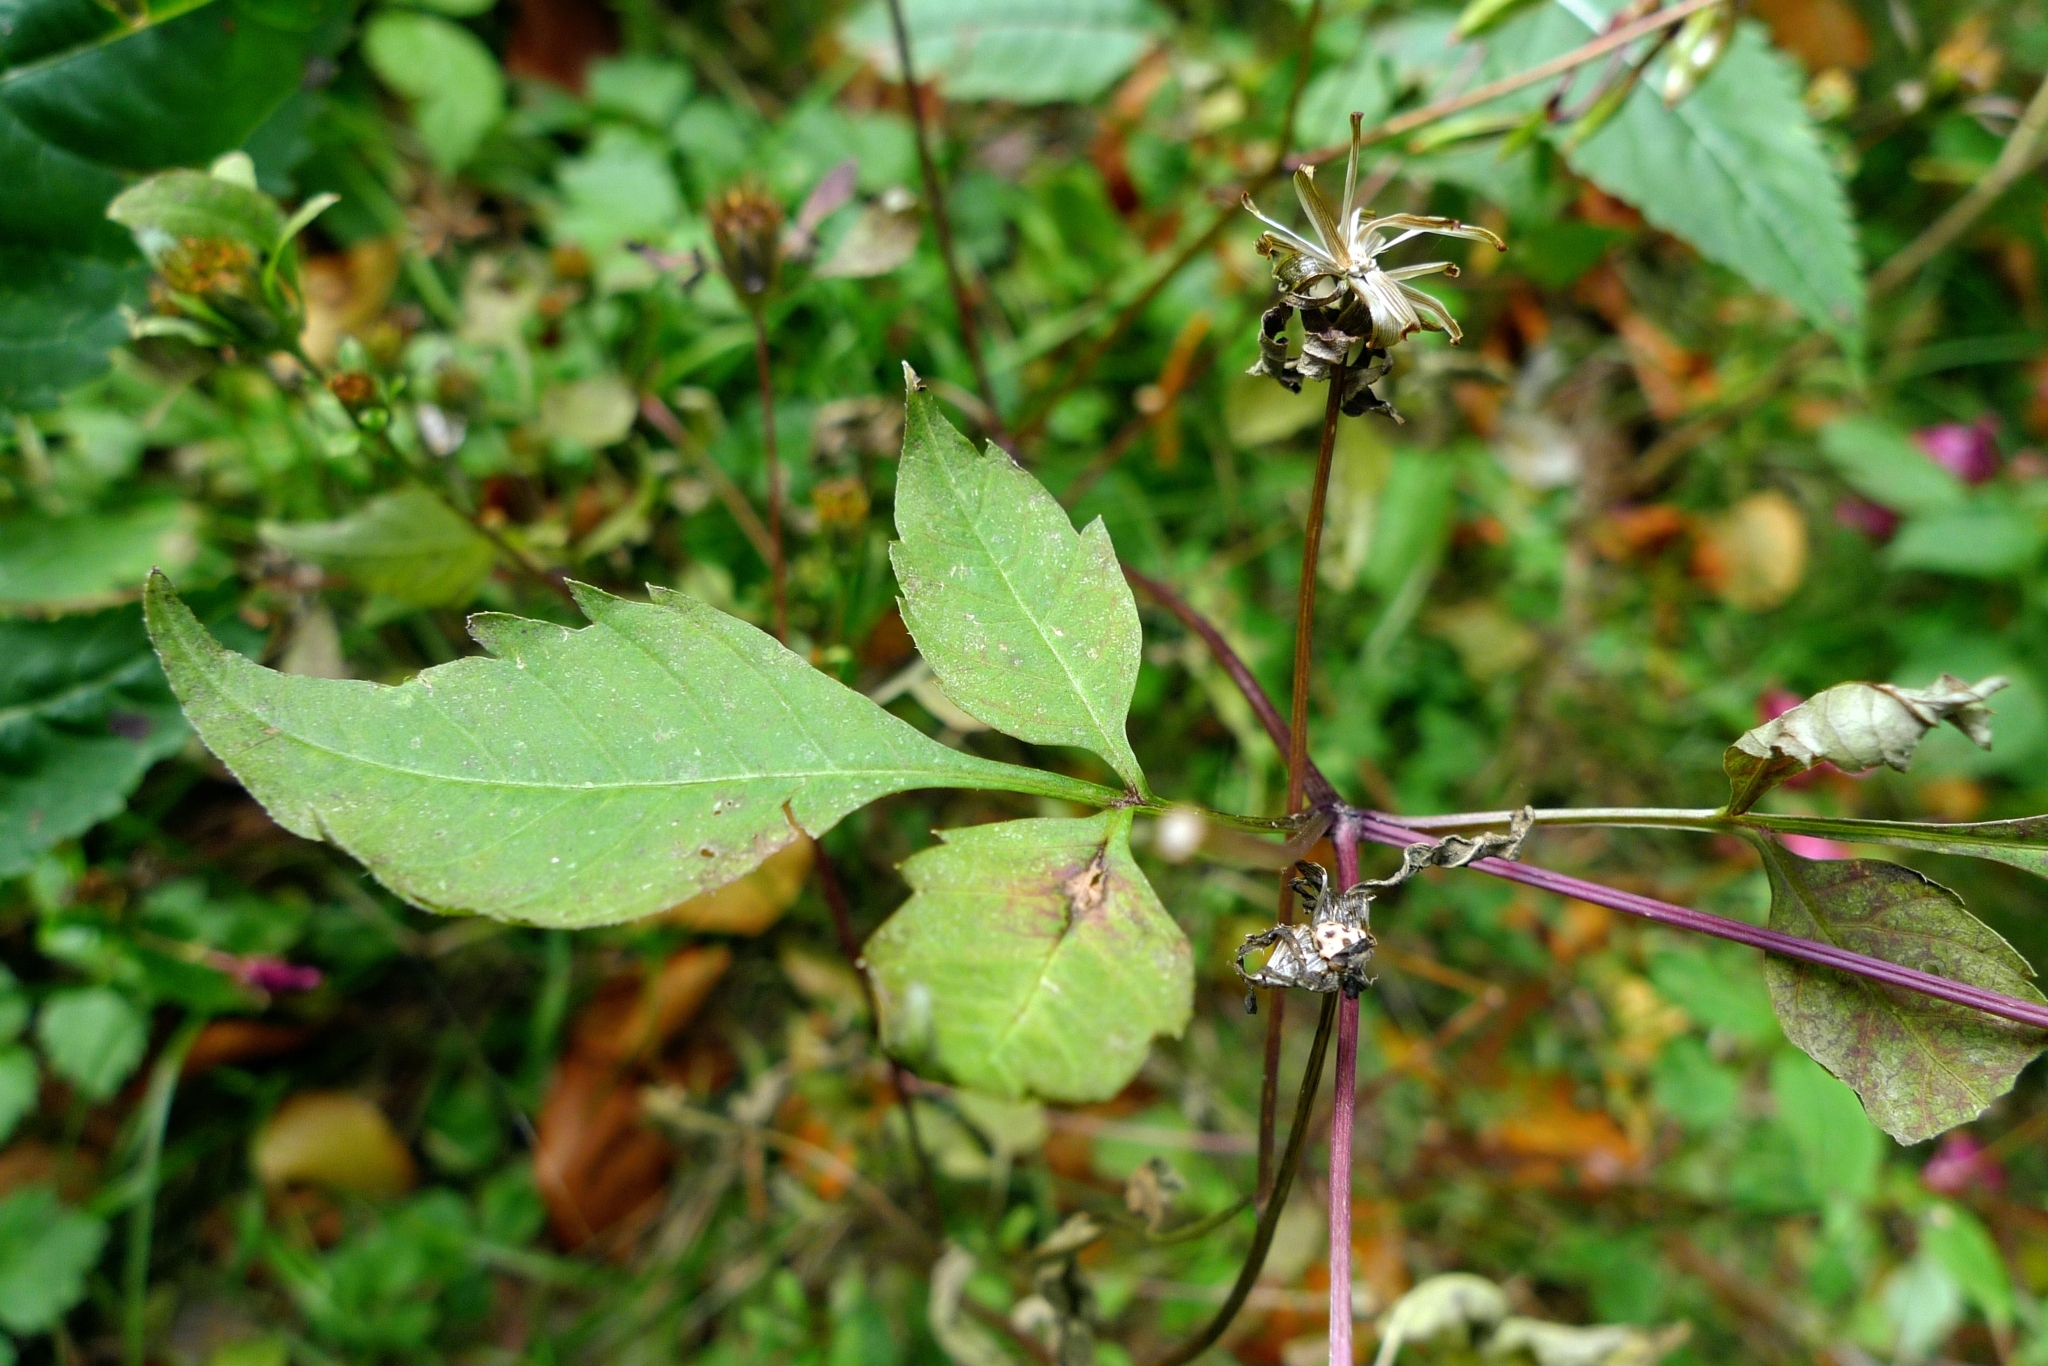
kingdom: Plantae
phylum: Tracheophyta
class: Magnoliopsida
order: Asterales
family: Asteraceae
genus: Bidens
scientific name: Bidens frondosa
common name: Beggarticks
